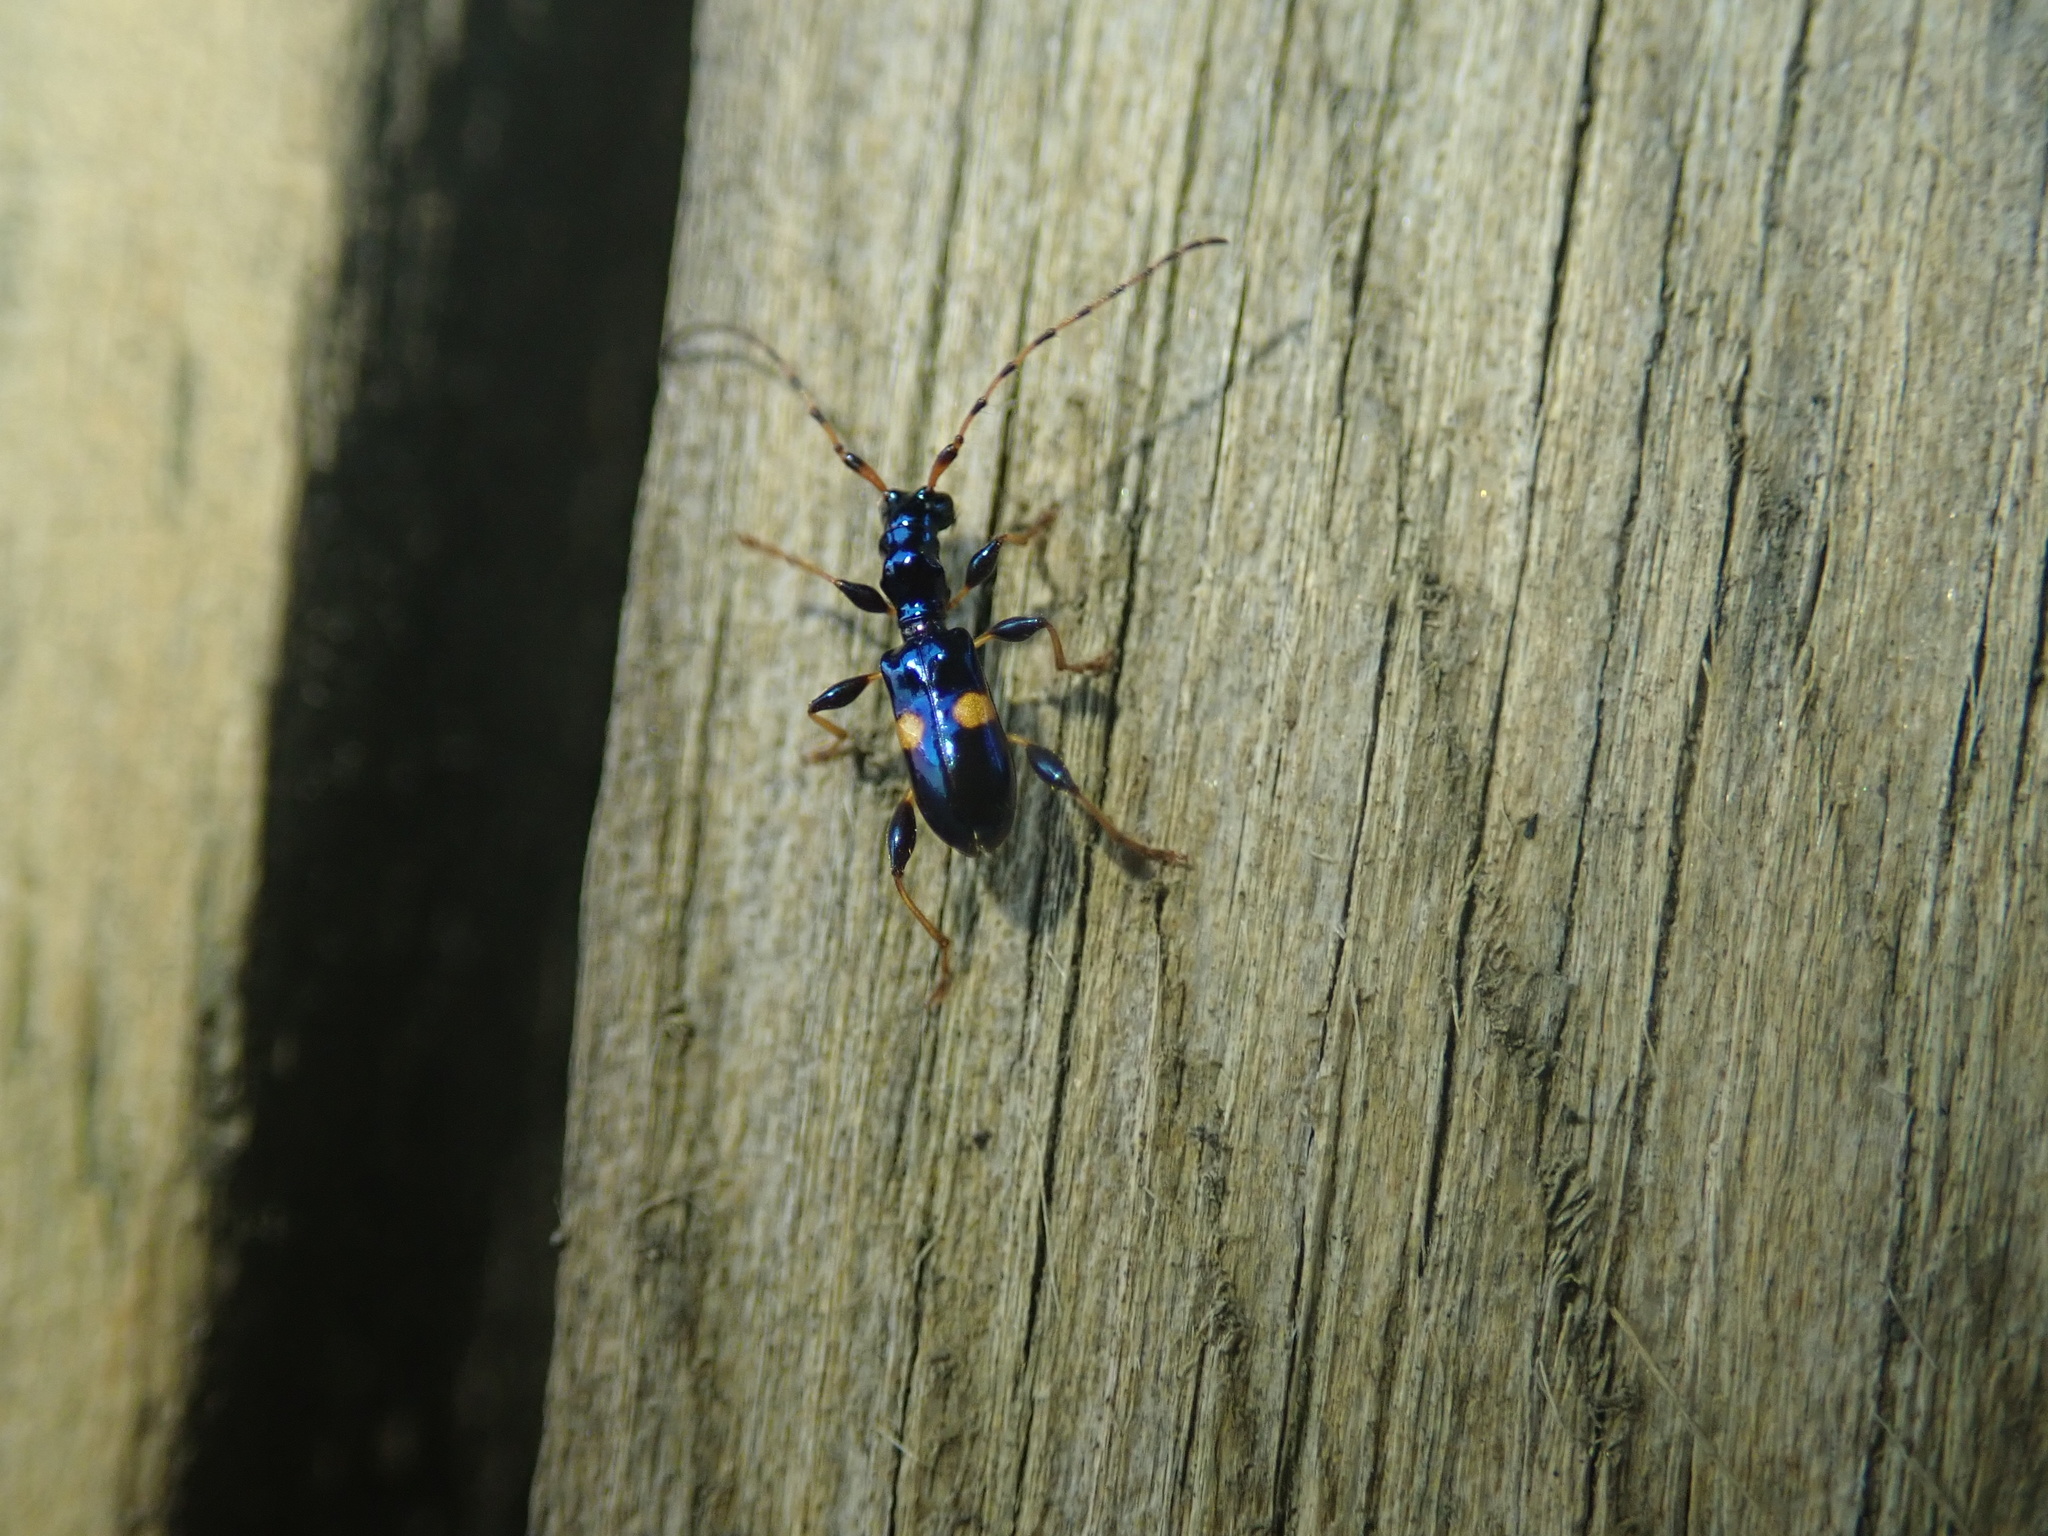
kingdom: Animalia
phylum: Arthropoda
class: Insecta
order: Coleoptera
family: Cerambycidae
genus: Zorion
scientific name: Zorion guttigerum
